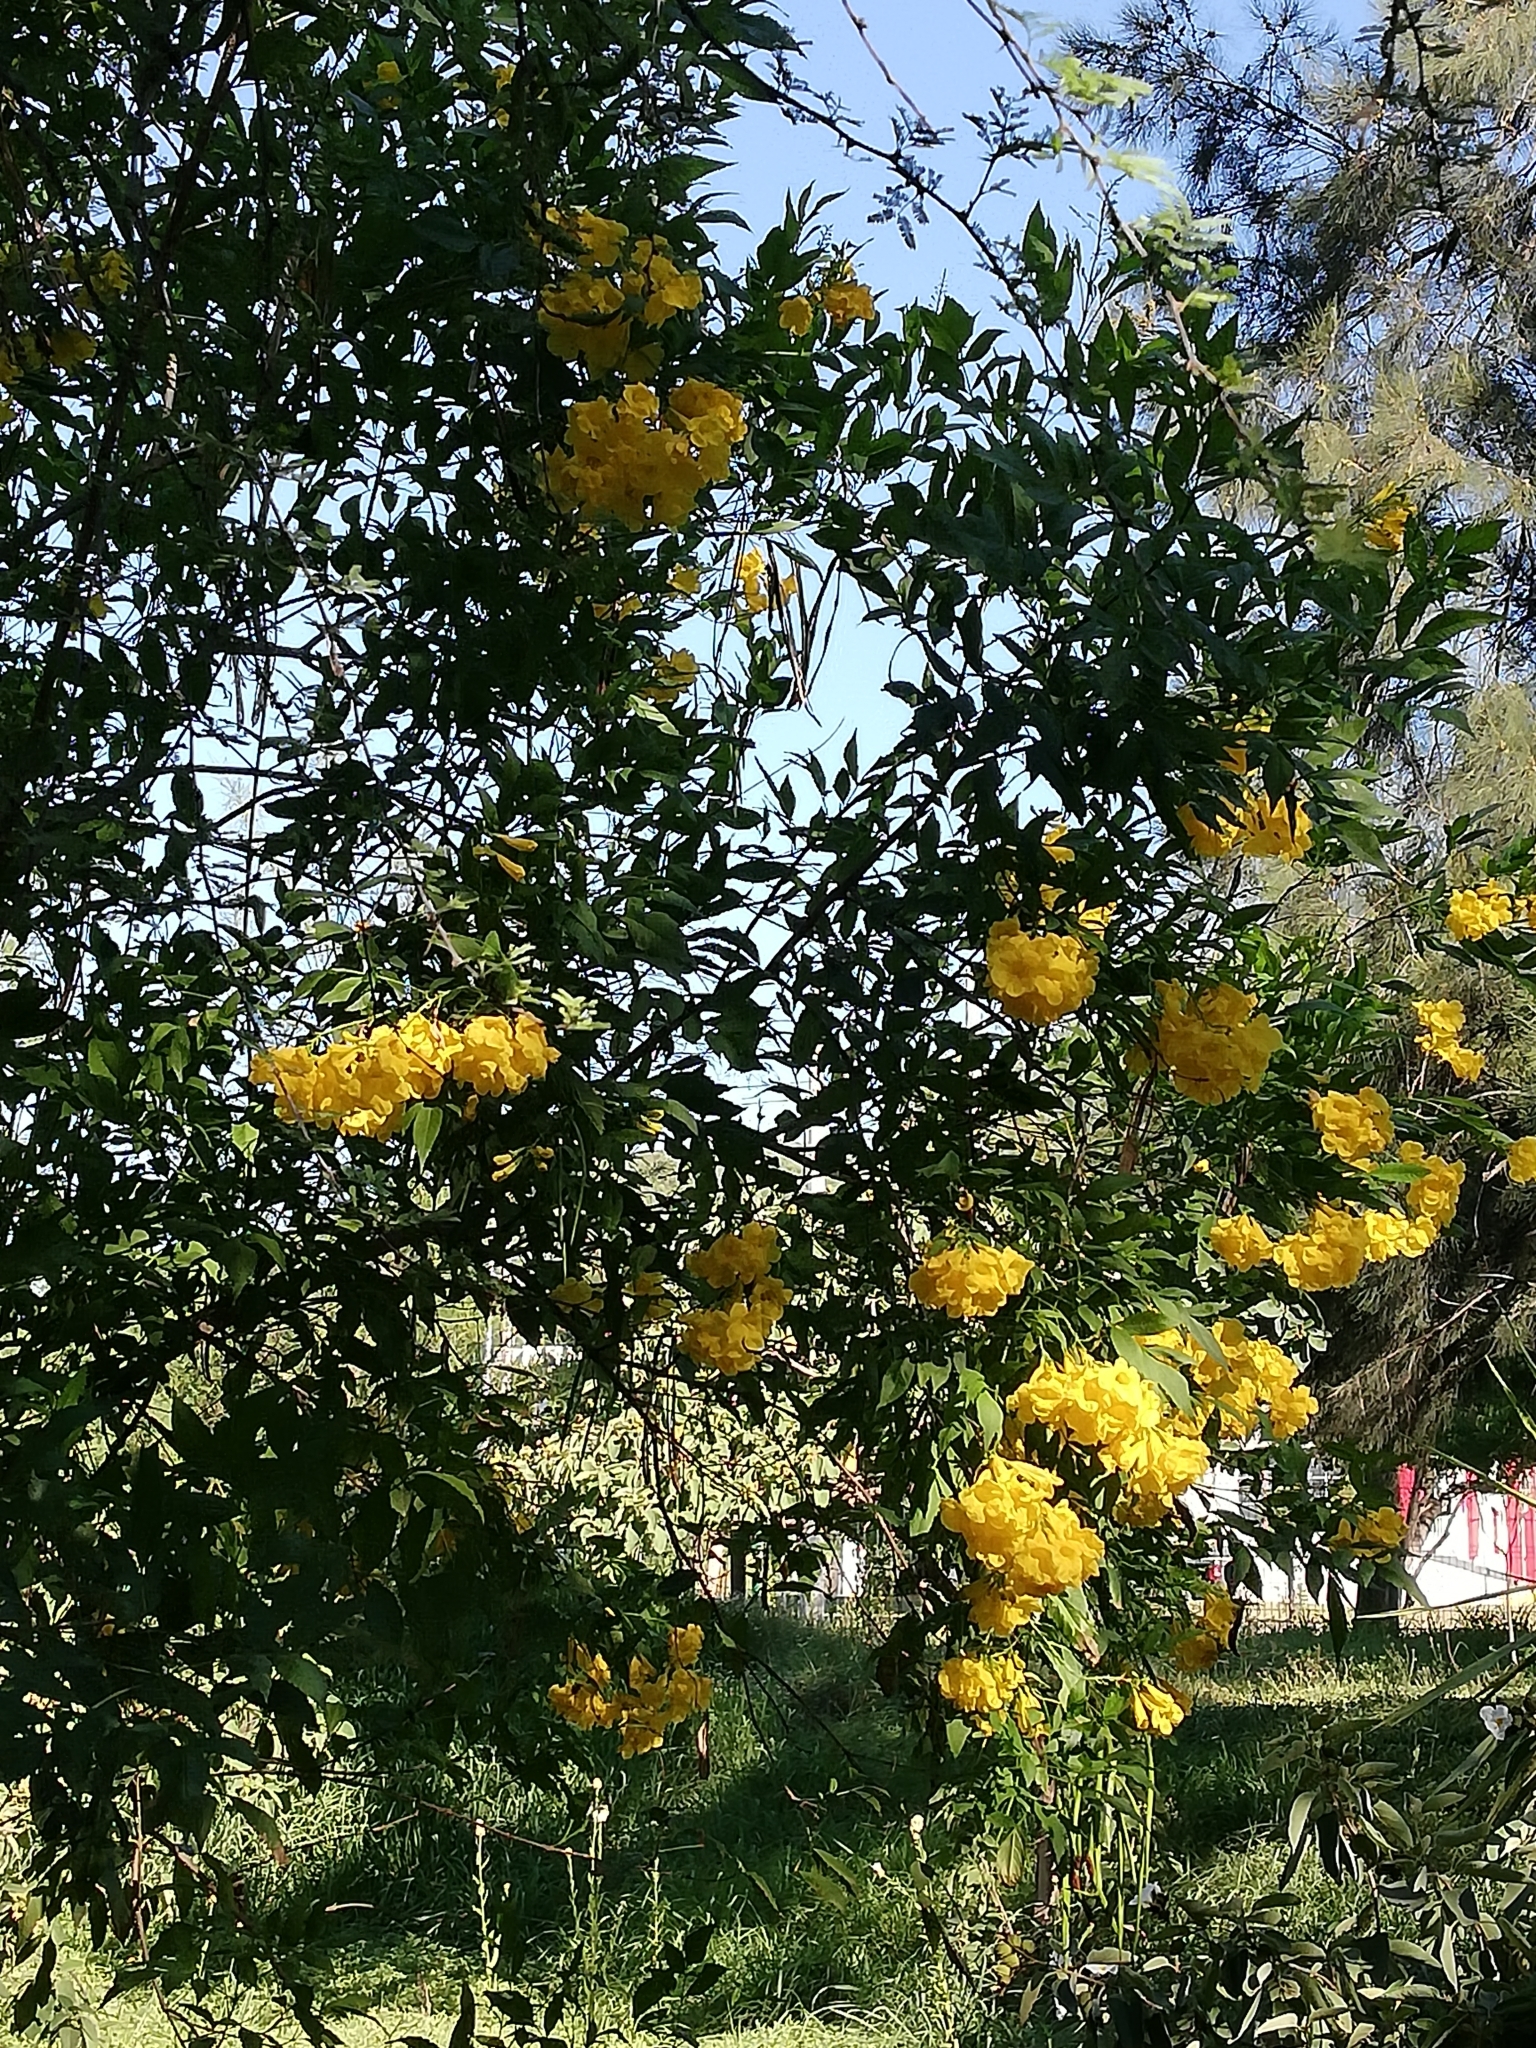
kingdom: Plantae
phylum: Tracheophyta
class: Magnoliopsida
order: Lamiales
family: Bignoniaceae
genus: Tecoma
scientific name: Tecoma stans
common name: Yellow trumpetbush
